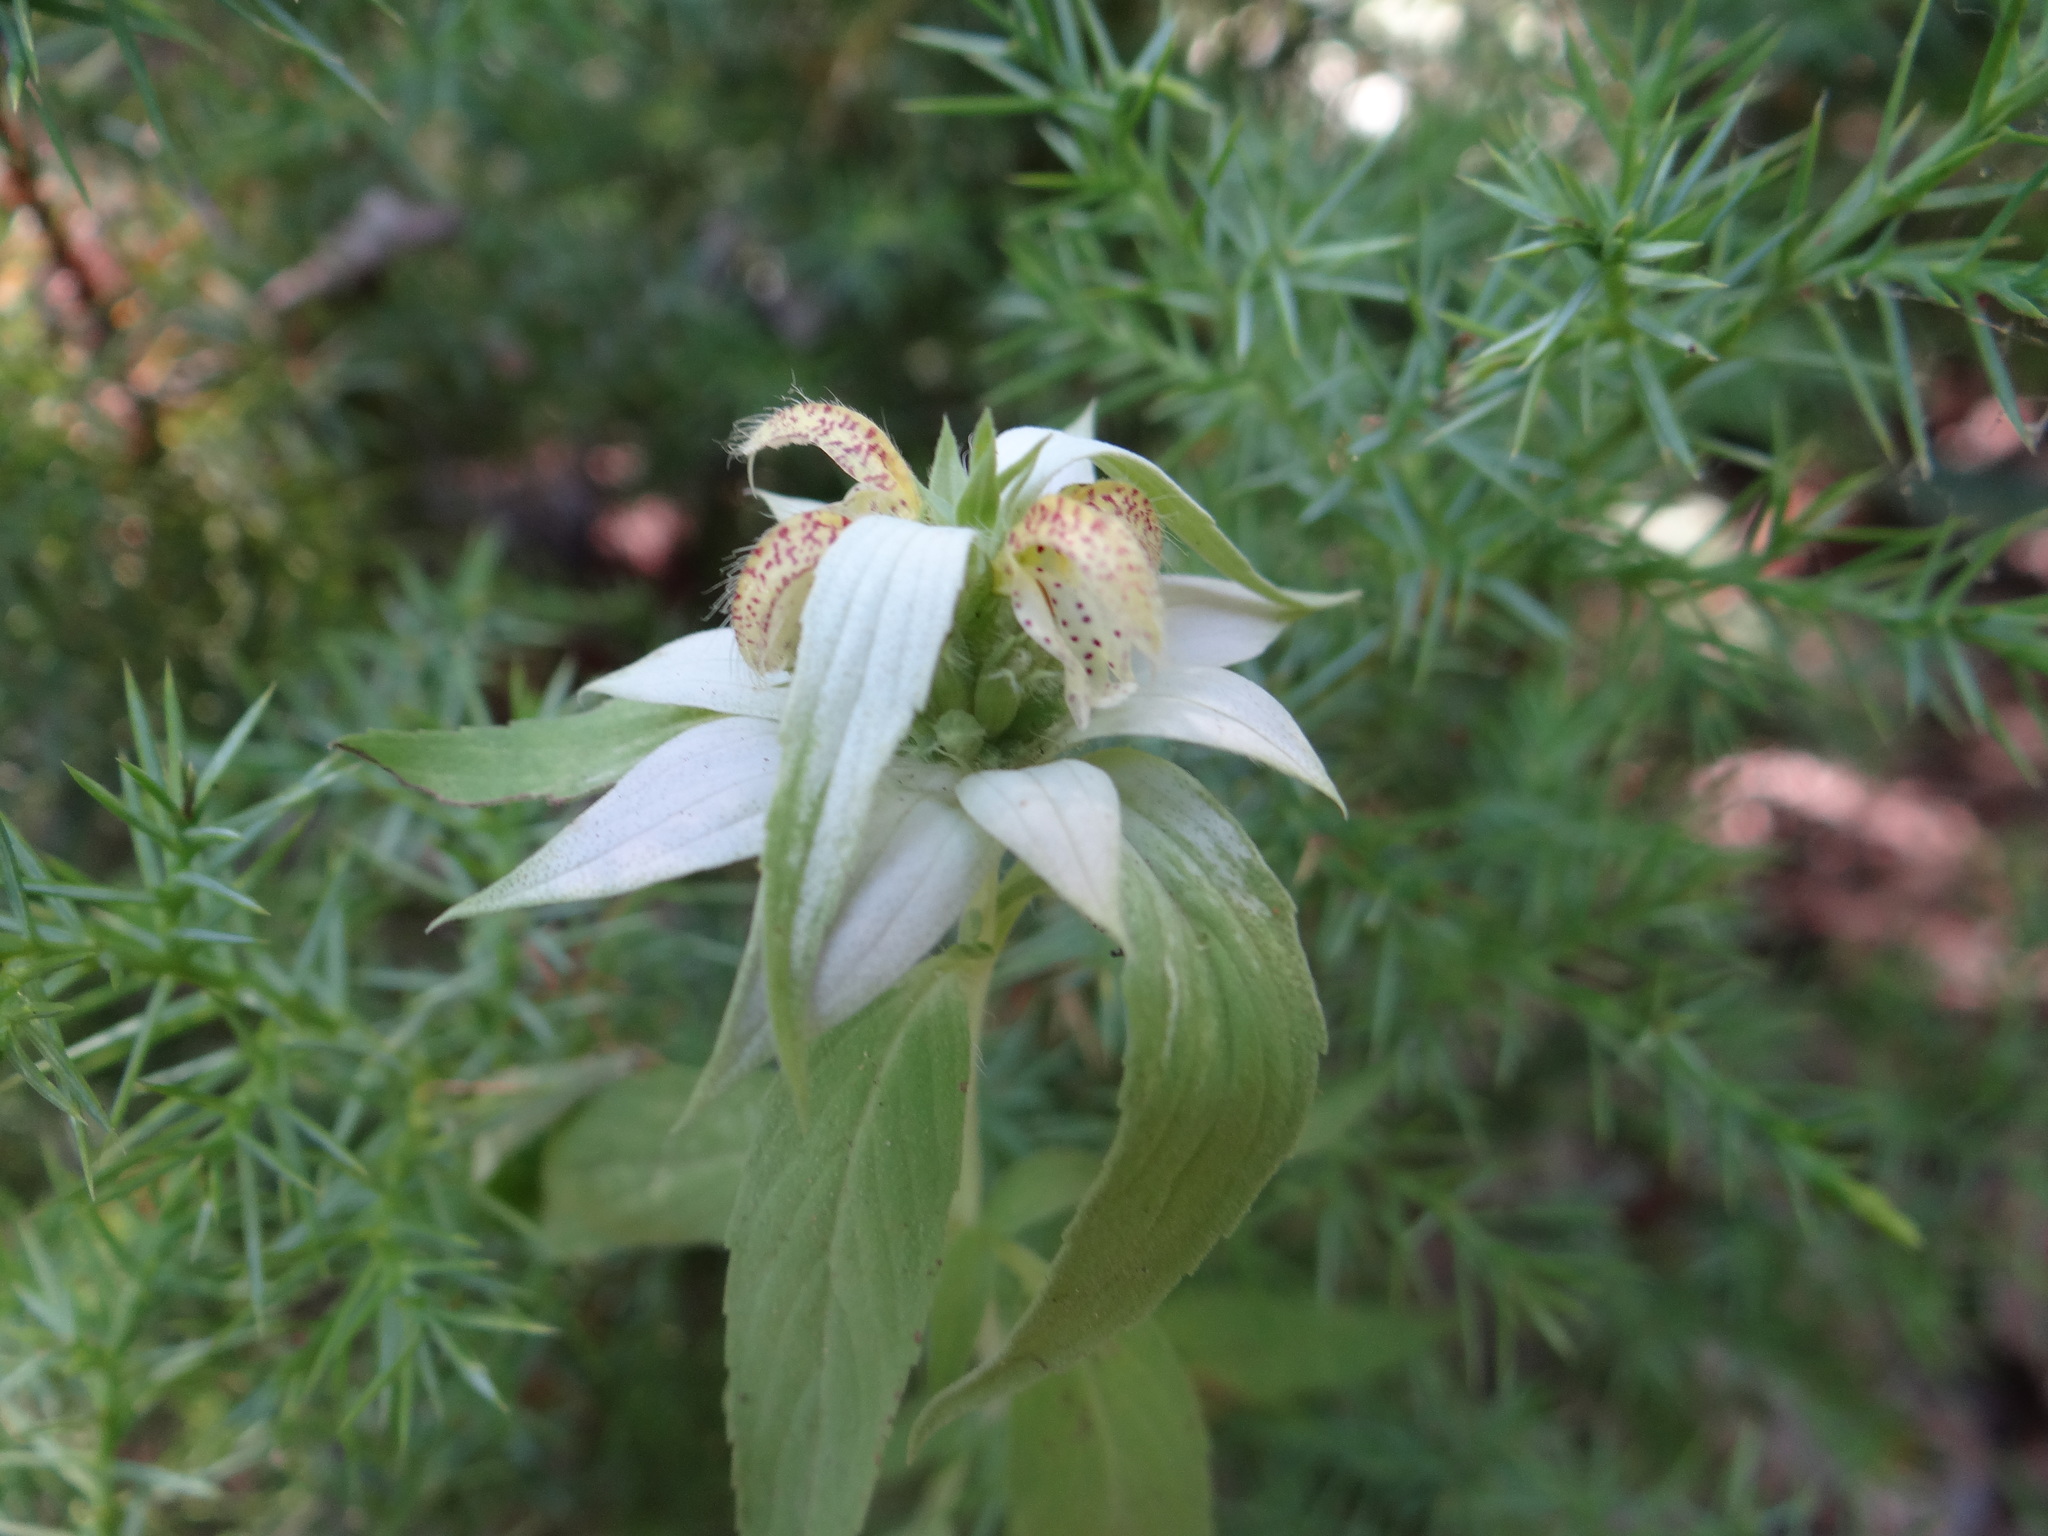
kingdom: Plantae
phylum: Tracheophyta
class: Magnoliopsida
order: Lamiales
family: Lamiaceae
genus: Monarda
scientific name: Monarda punctata
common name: Dotted monarda
